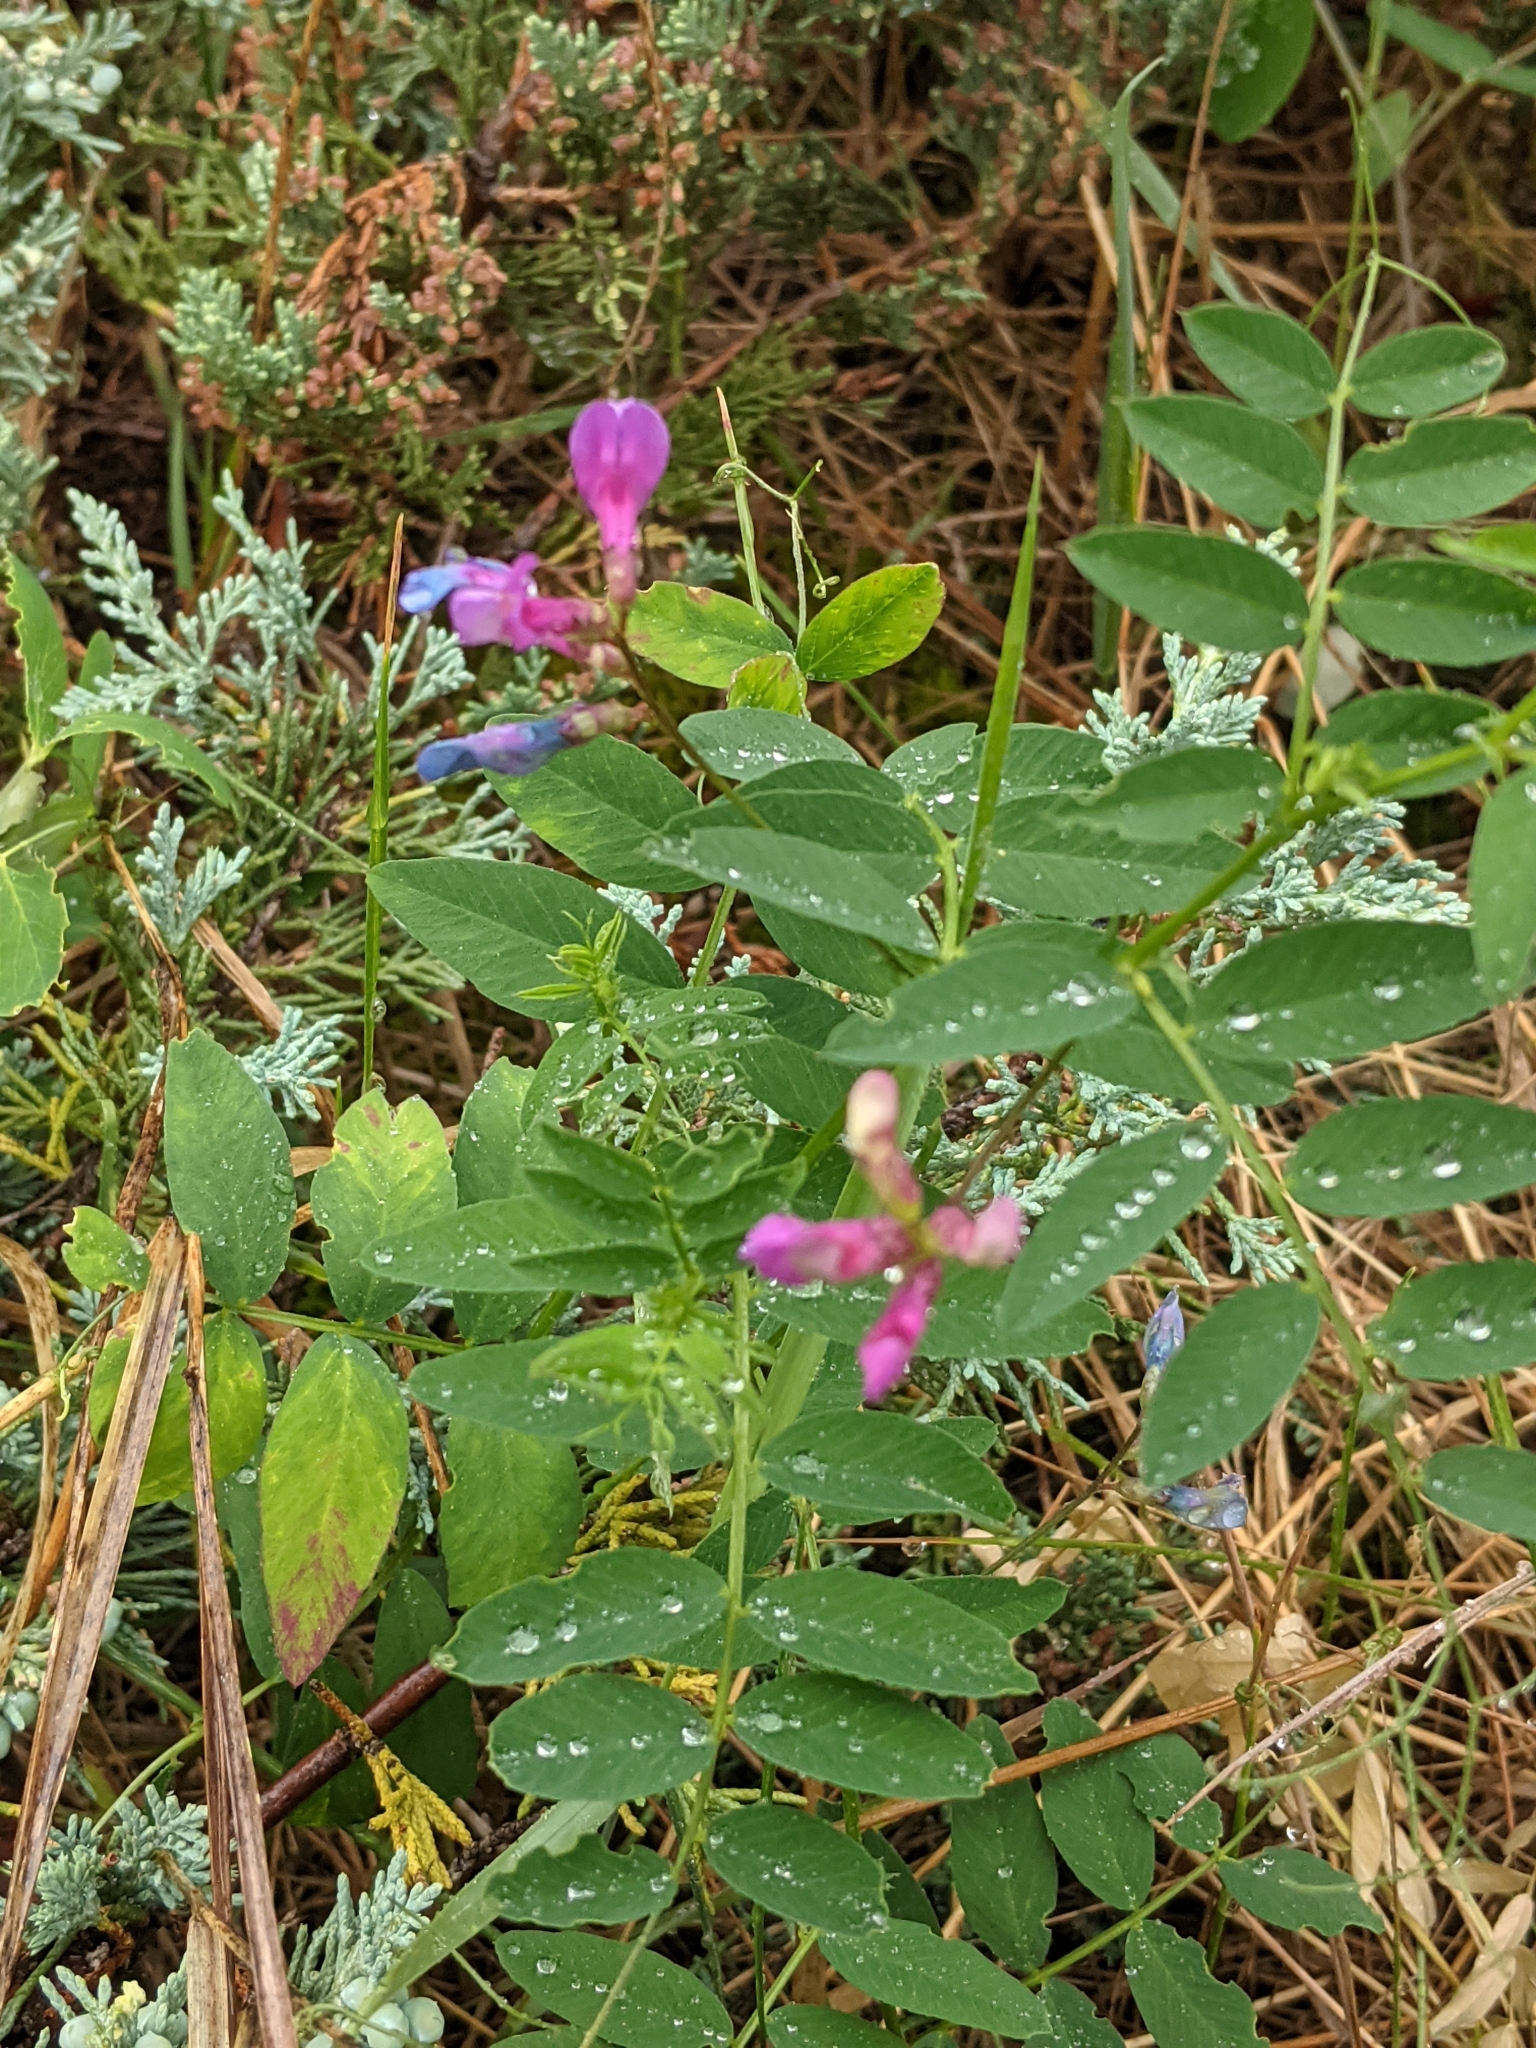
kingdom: Plantae
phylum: Tracheophyta
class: Magnoliopsida
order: Fabales
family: Fabaceae
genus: Vicia
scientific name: Vicia americana
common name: American vetch
